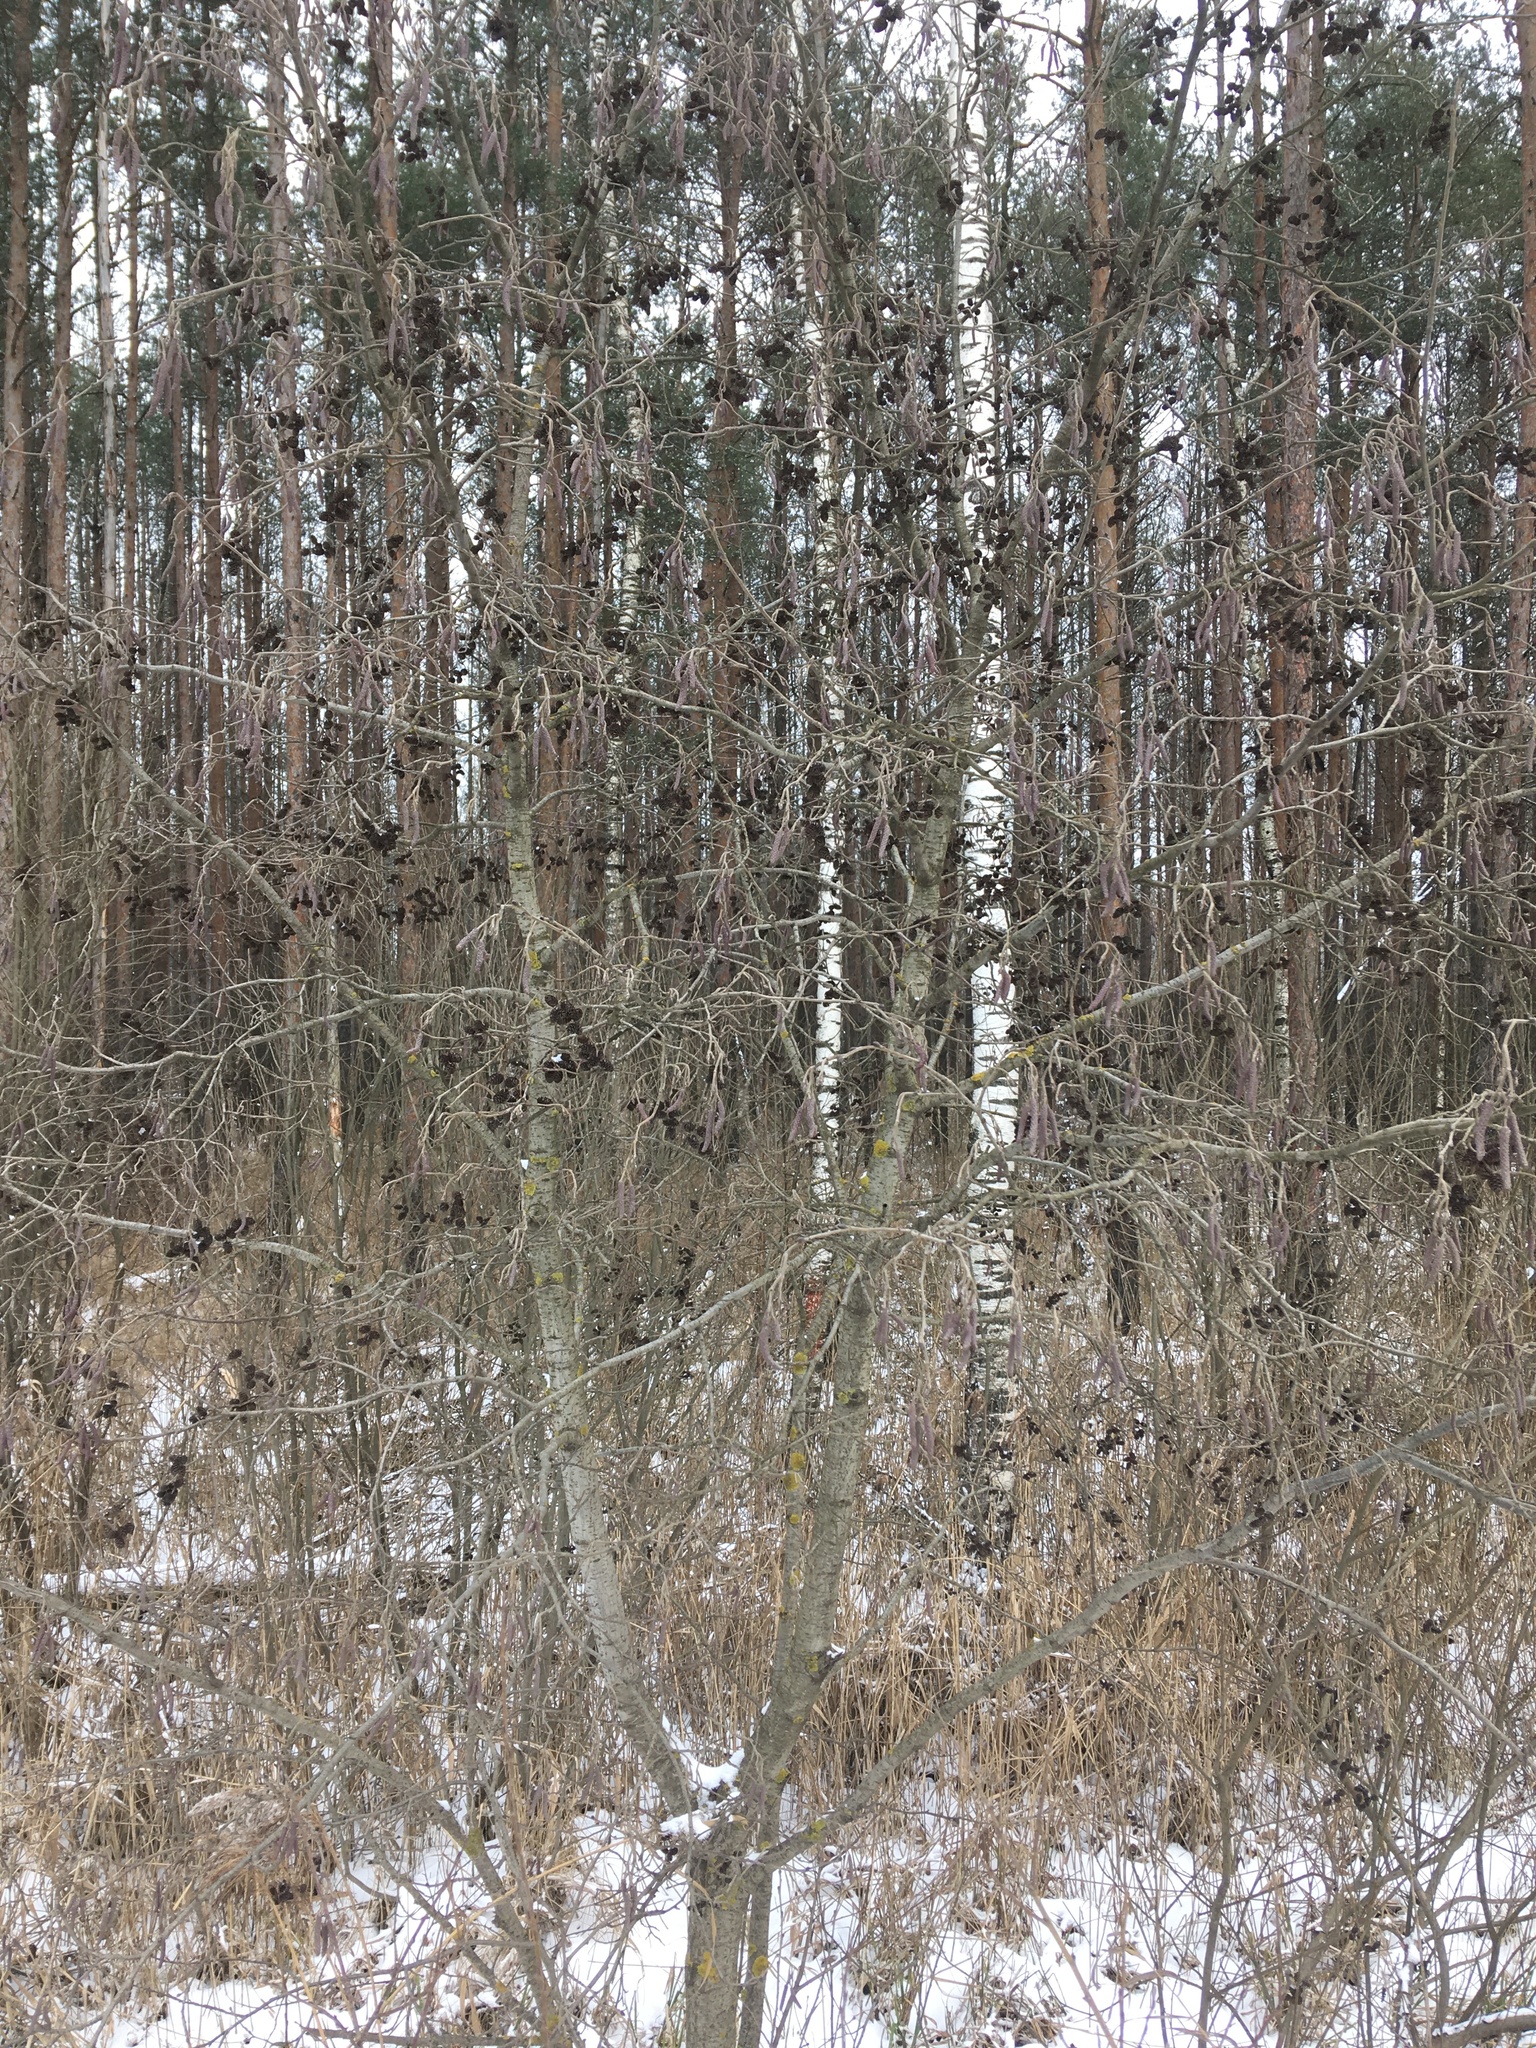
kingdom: Plantae
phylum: Tracheophyta
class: Magnoliopsida
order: Fagales
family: Betulaceae
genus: Alnus
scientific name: Alnus incana
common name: Grey alder
